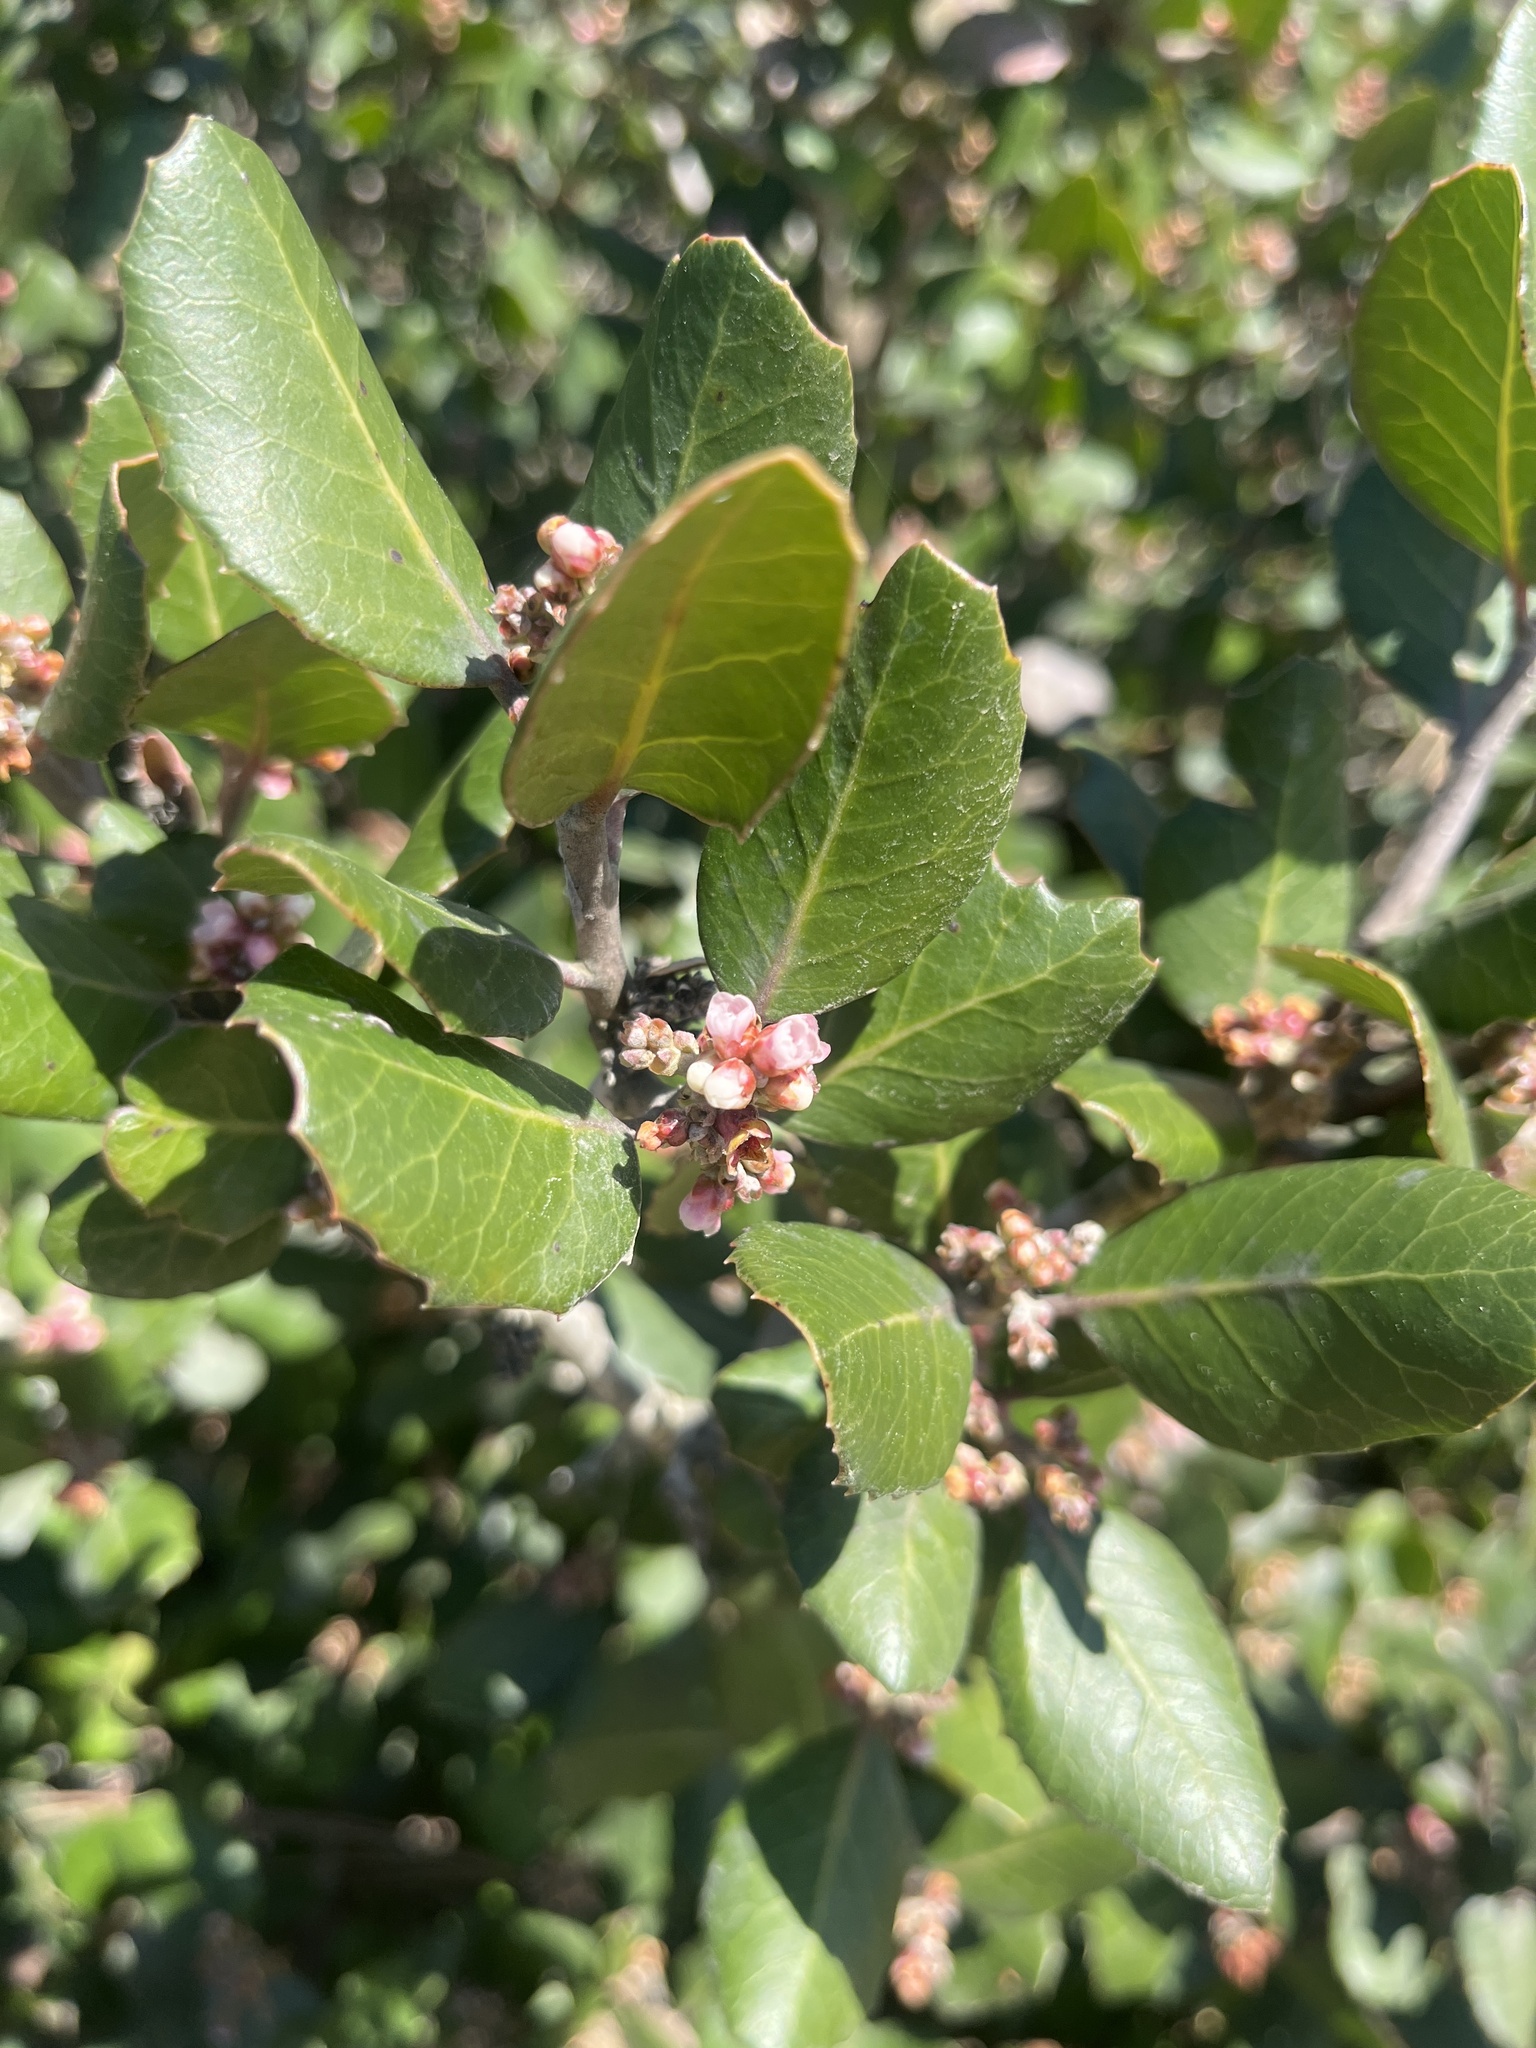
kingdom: Plantae
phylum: Tracheophyta
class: Magnoliopsida
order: Sapindales
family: Anacardiaceae
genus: Rhus
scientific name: Rhus integrifolia
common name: Lemonade sumac
